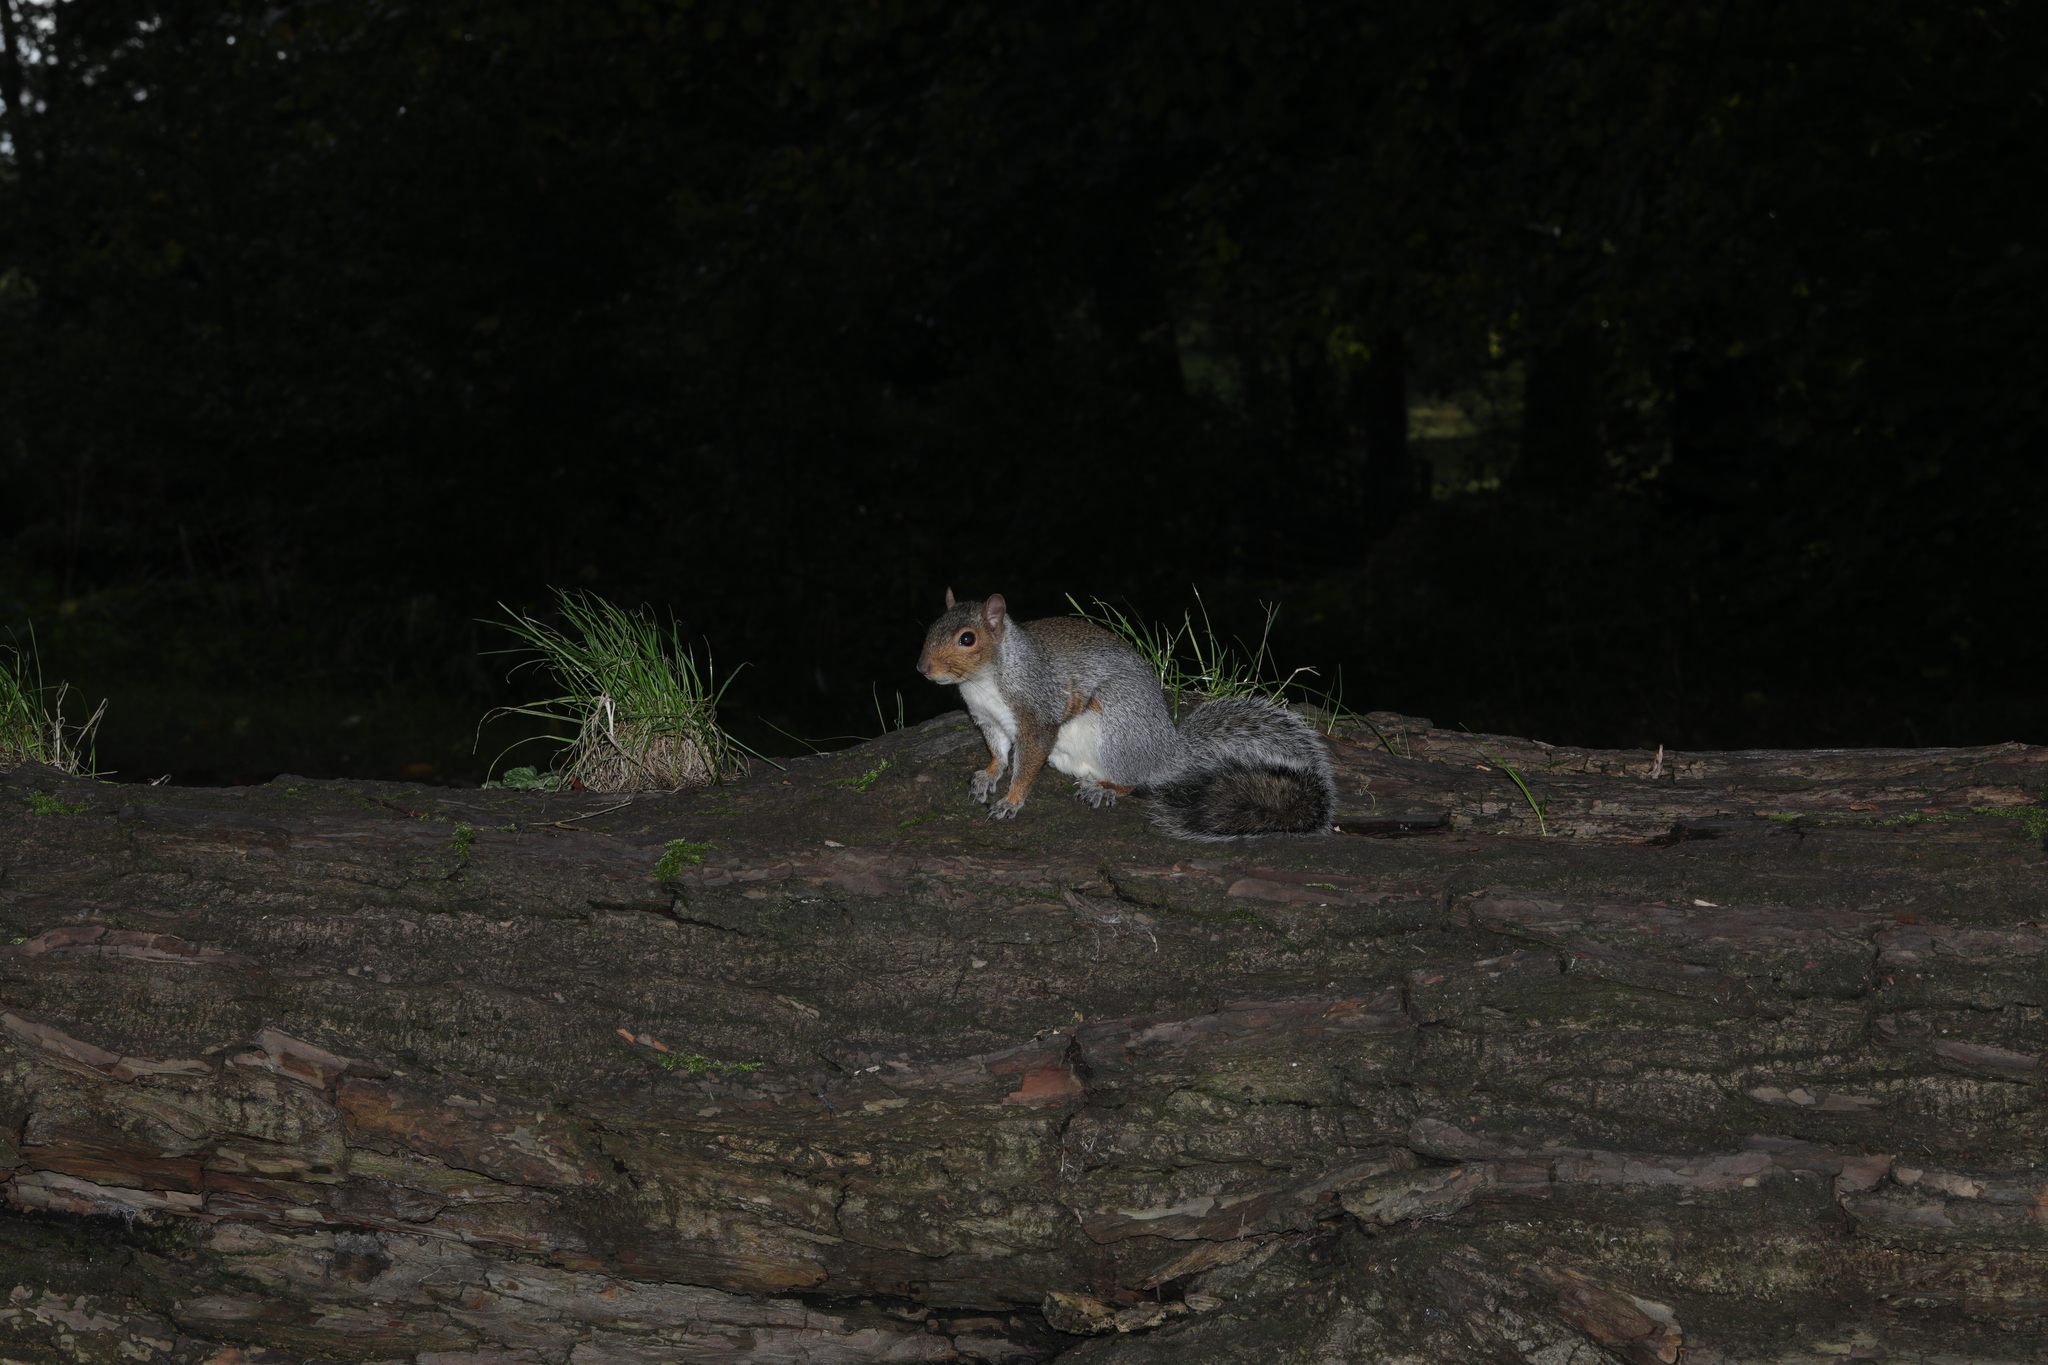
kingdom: Animalia
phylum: Chordata
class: Mammalia
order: Rodentia
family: Sciuridae
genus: Sciurus
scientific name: Sciurus carolinensis
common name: Eastern gray squirrel
